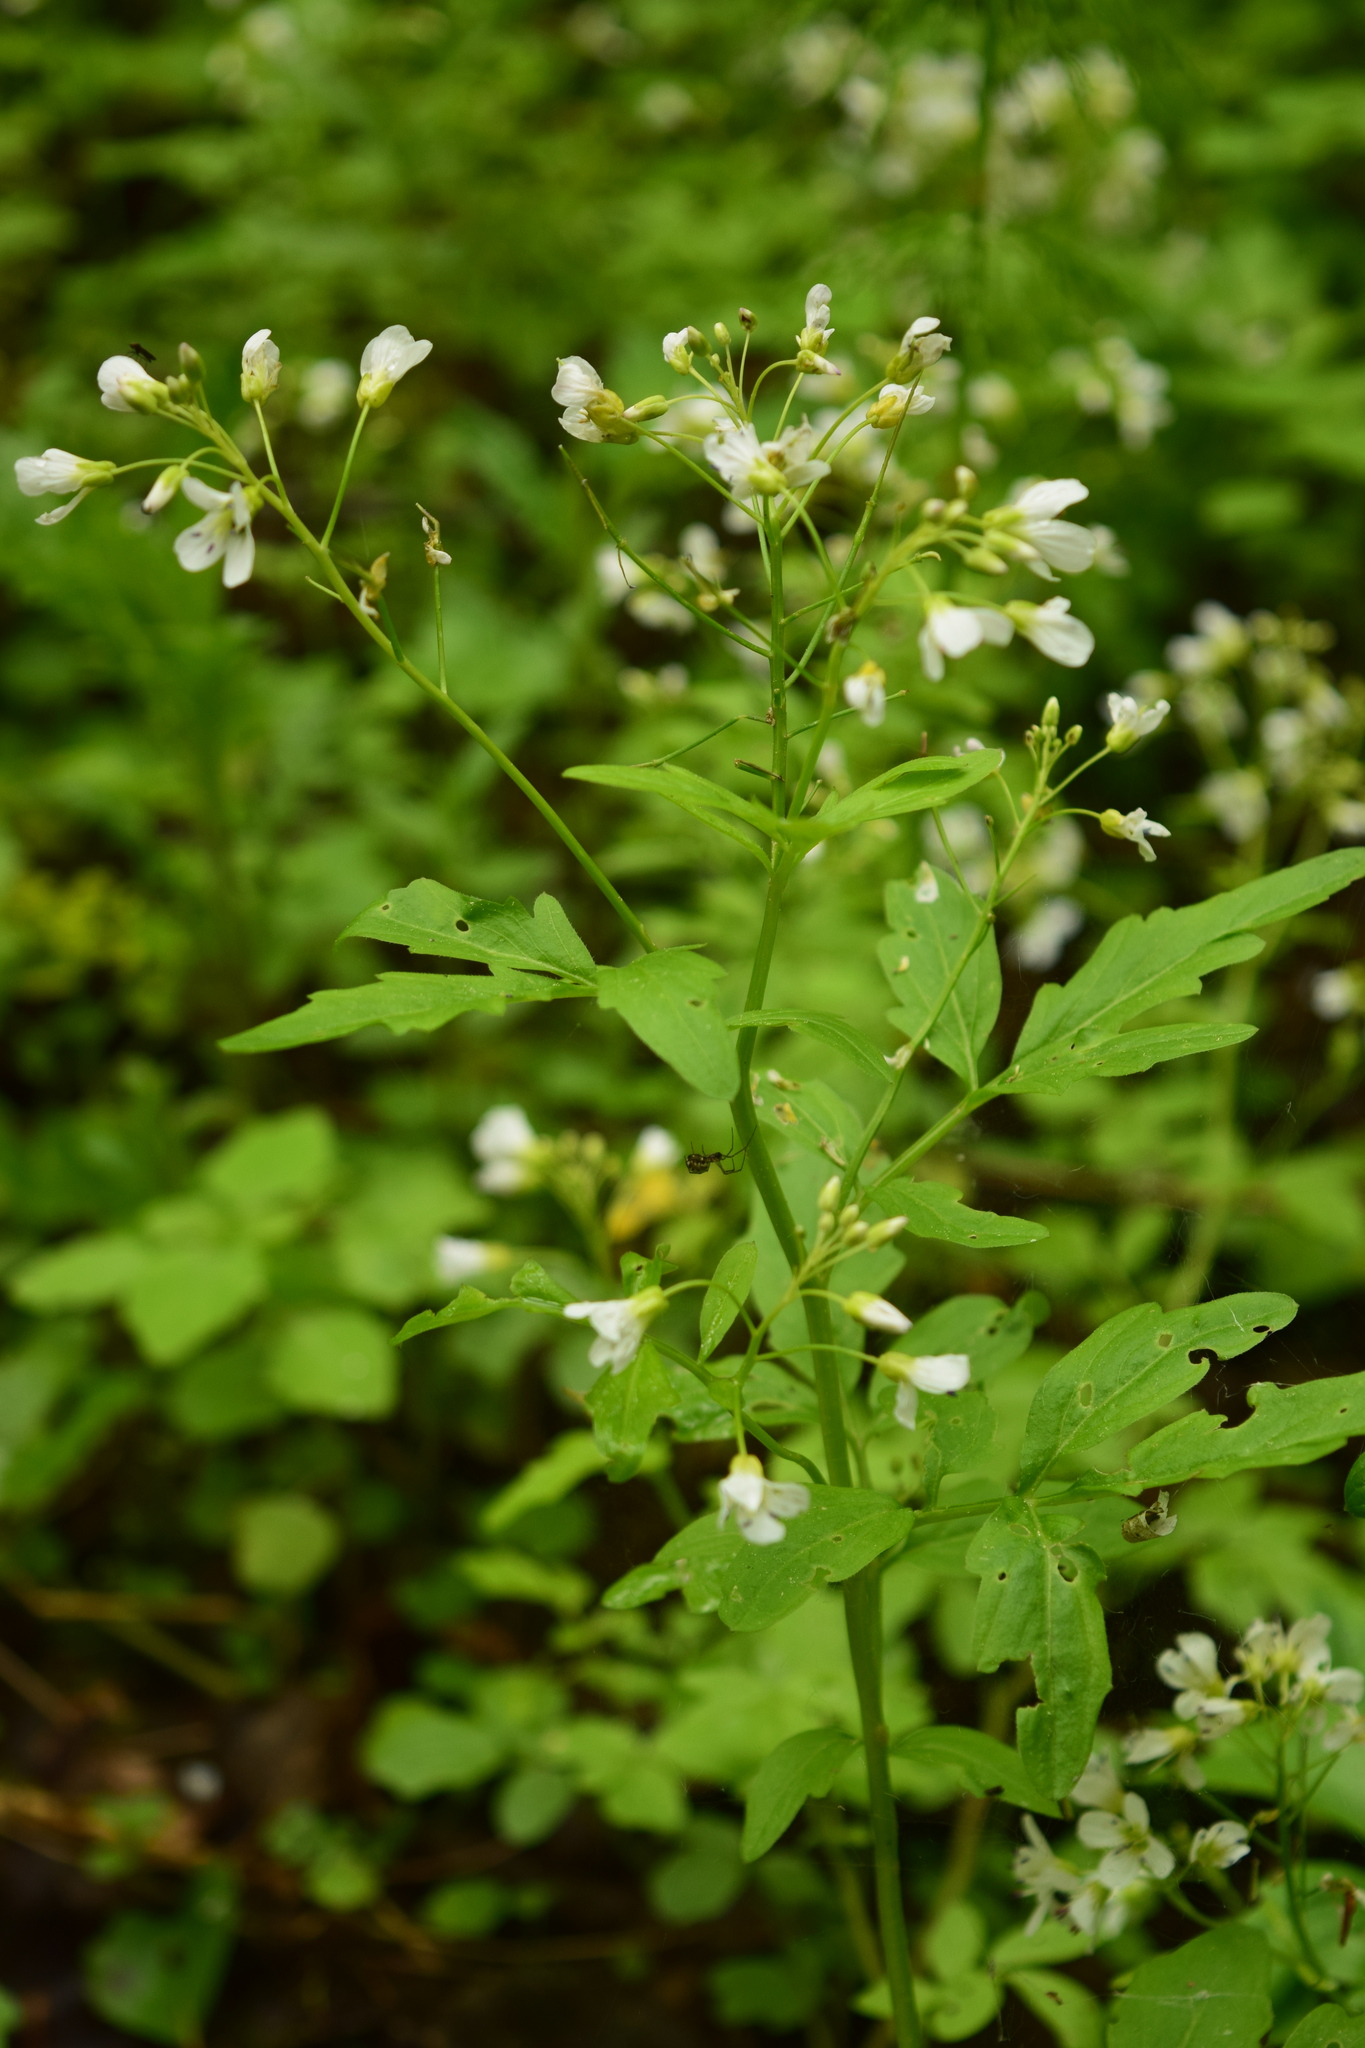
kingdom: Plantae
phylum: Tracheophyta
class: Magnoliopsida
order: Brassicales
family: Brassicaceae
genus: Cardamine
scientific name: Cardamine amara
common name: Large bitter-cress
